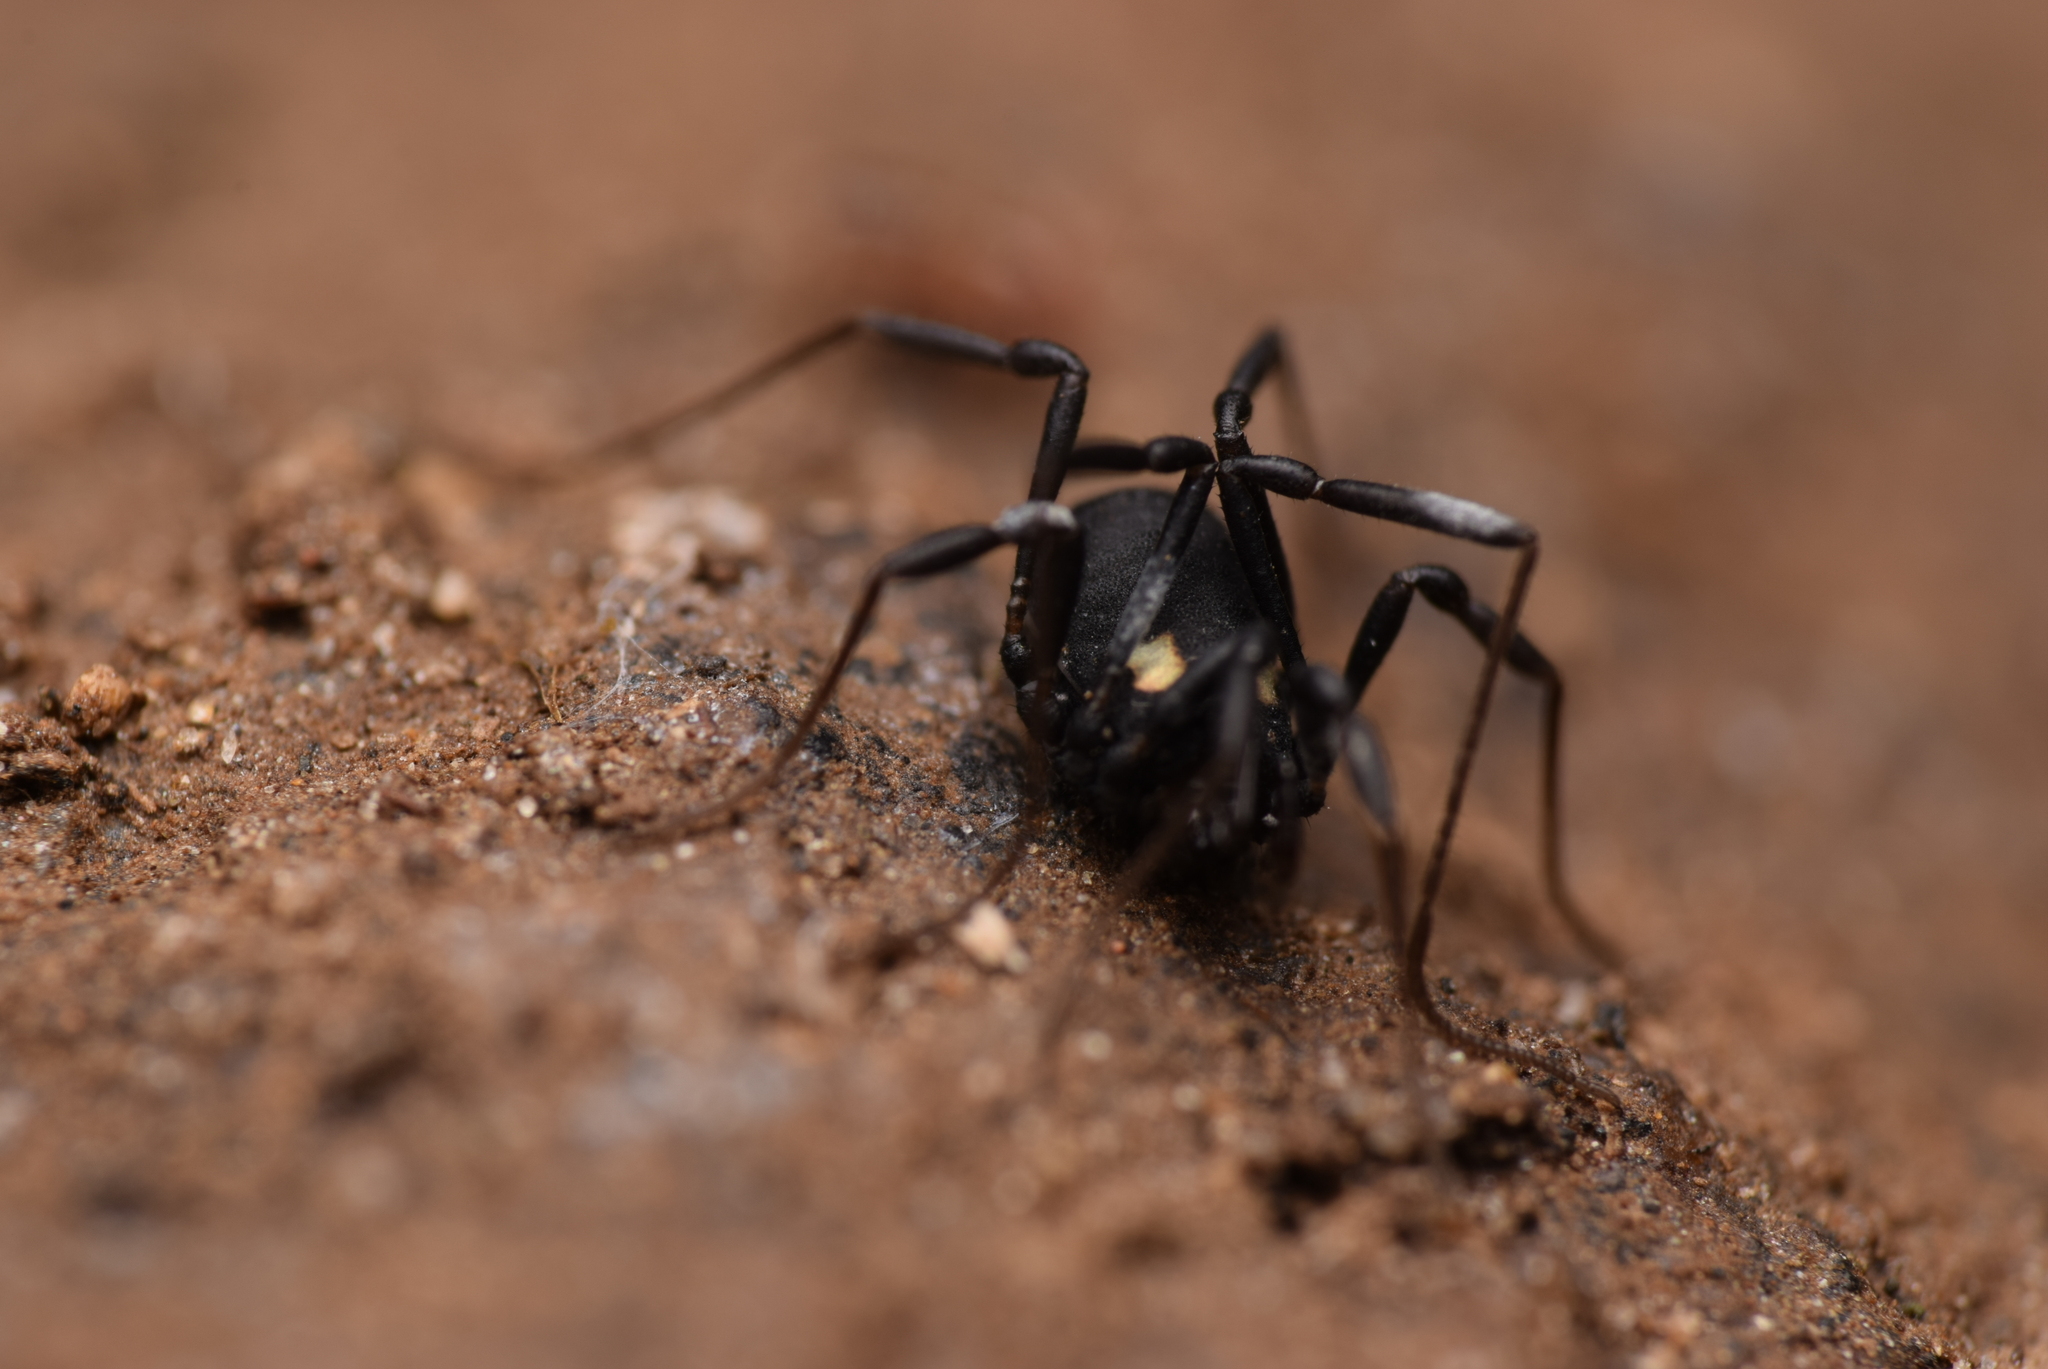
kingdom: Animalia
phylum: Arthropoda
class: Arachnida
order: Opiliones
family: Nemastomatidae
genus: Nemastoma
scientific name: Nemastoma bimaculatum
